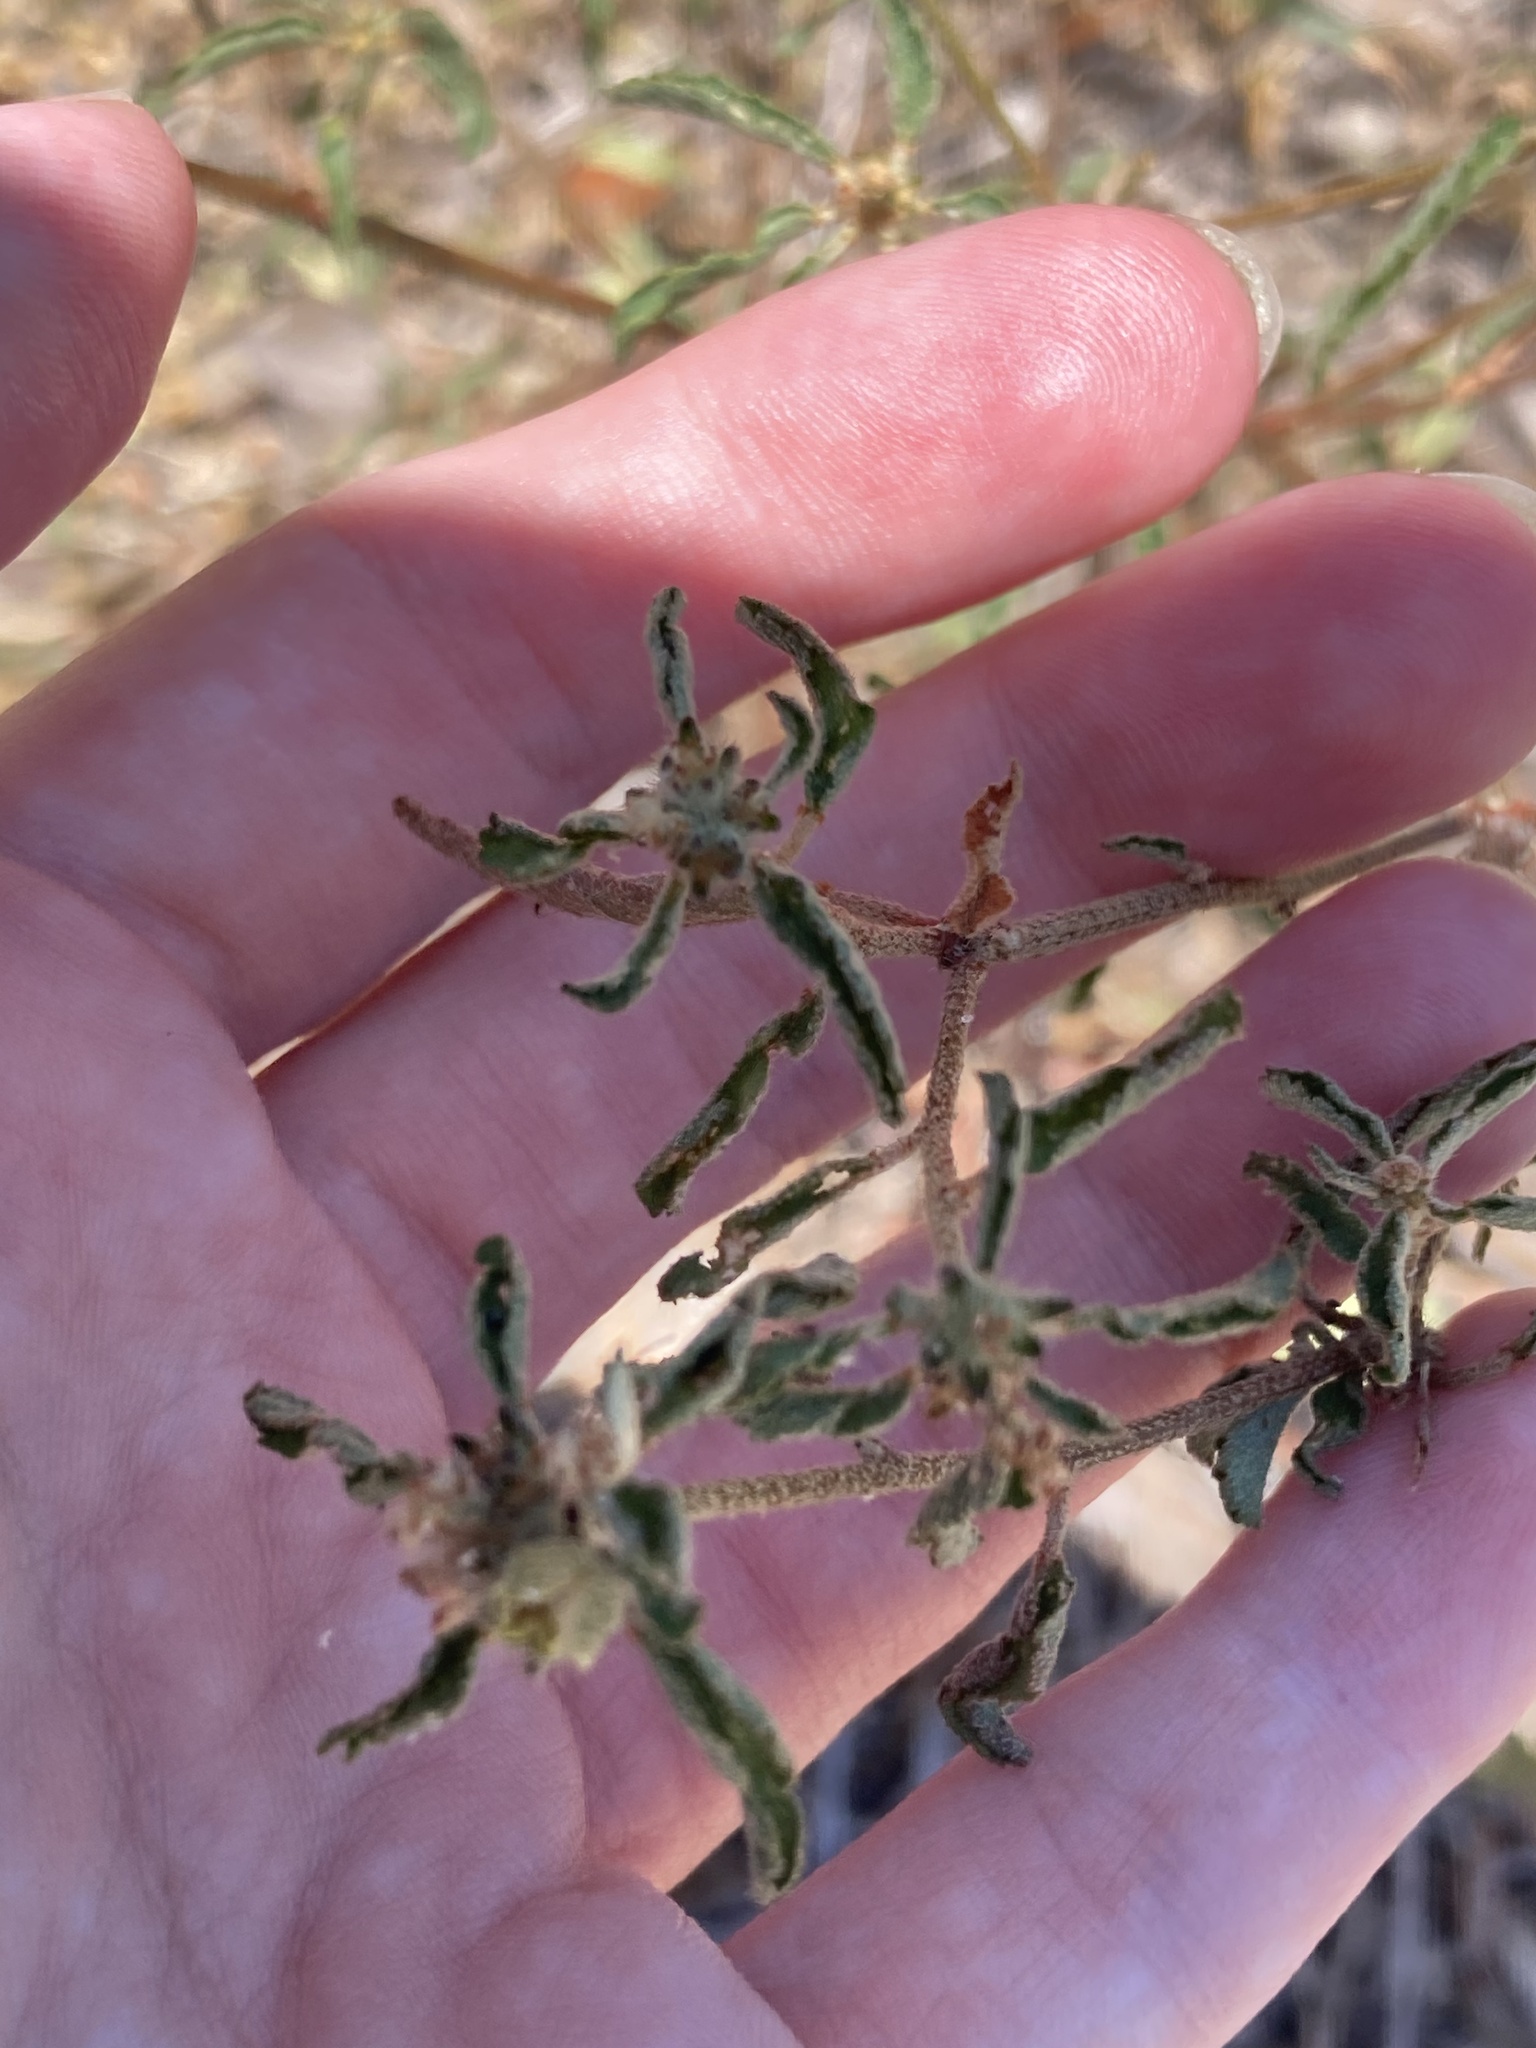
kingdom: Plantae
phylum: Tracheophyta
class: Magnoliopsida
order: Malpighiales
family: Euphorbiaceae
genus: Croton
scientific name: Croton glandulosus
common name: Tropic croton
